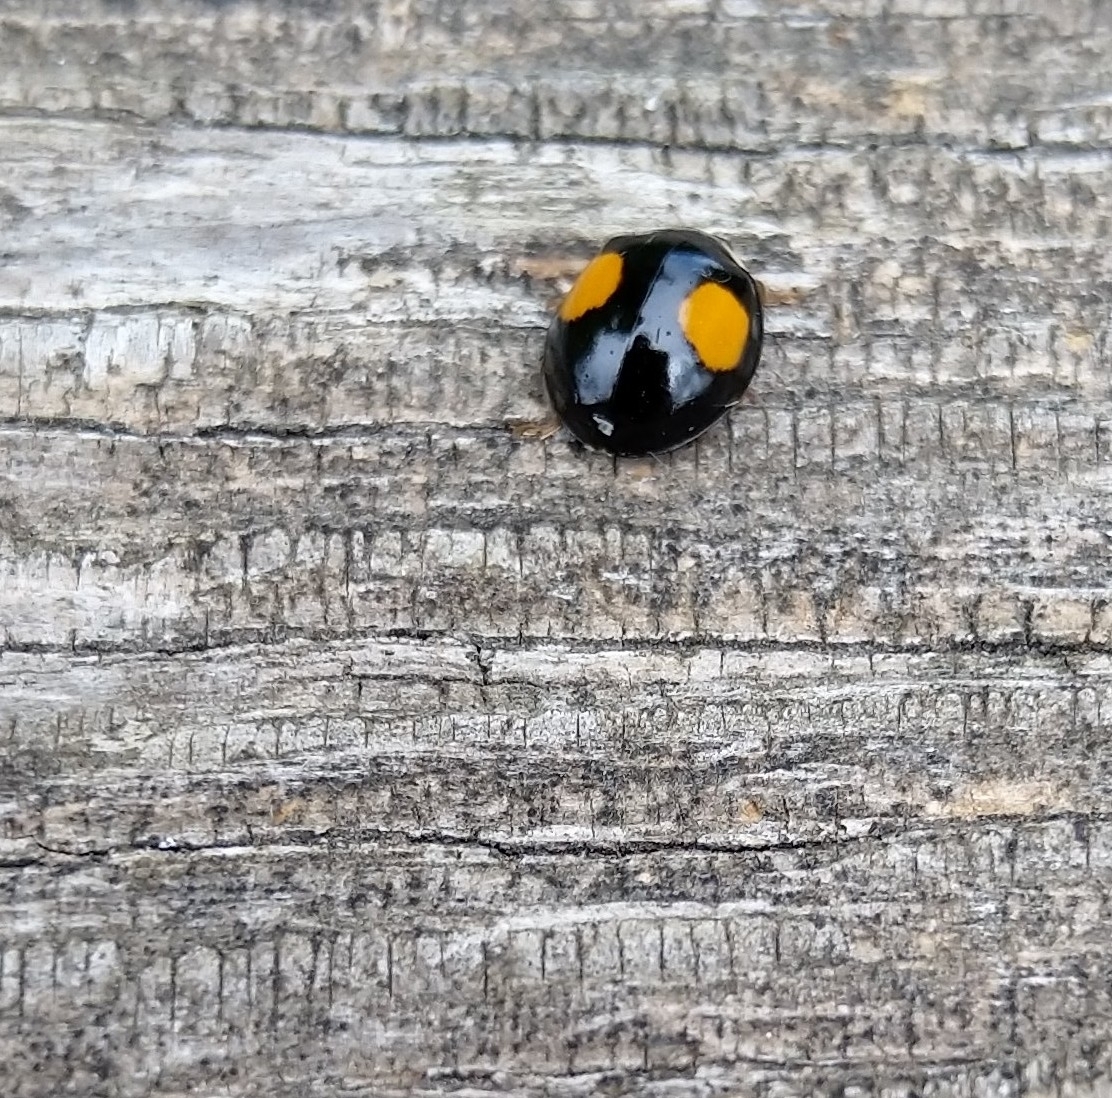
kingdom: Animalia
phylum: Arthropoda
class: Insecta
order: Coleoptera
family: Coccinellidae
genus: Harmonia
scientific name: Harmonia axyridis
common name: Harlequin ladybird
